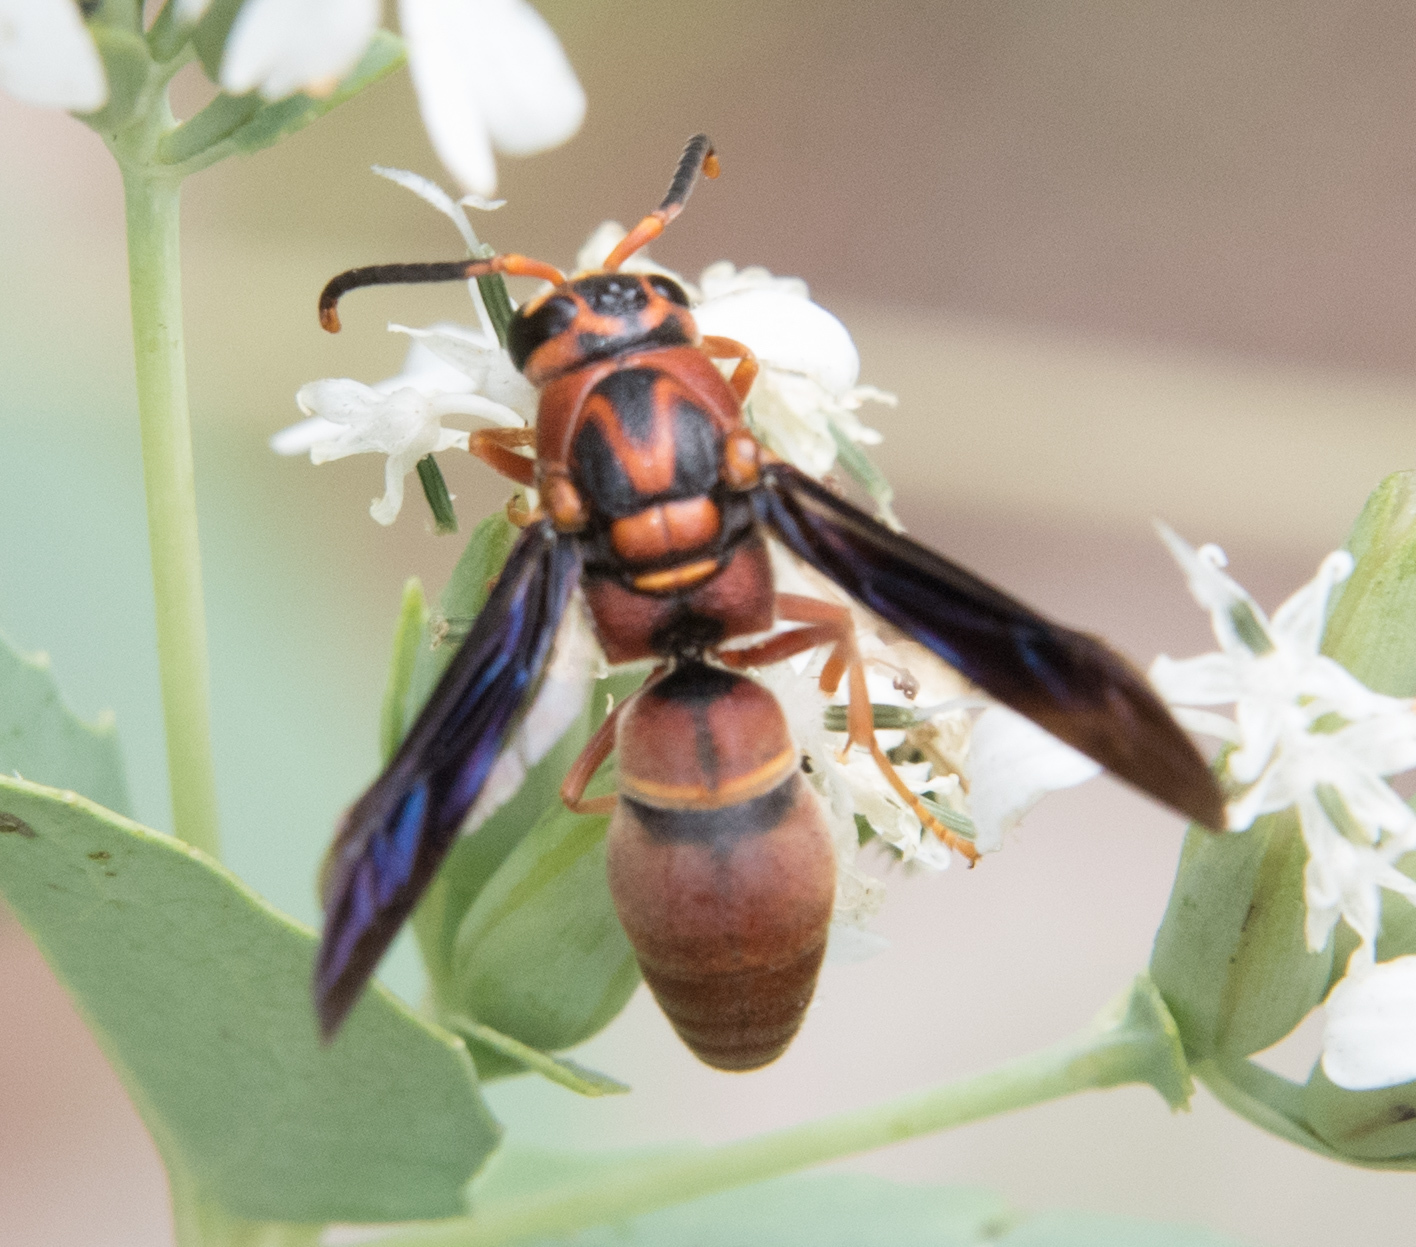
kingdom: Animalia
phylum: Arthropoda
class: Insecta
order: Hymenoptera
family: Eumenidae
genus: Monobia
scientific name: Monobia texana
